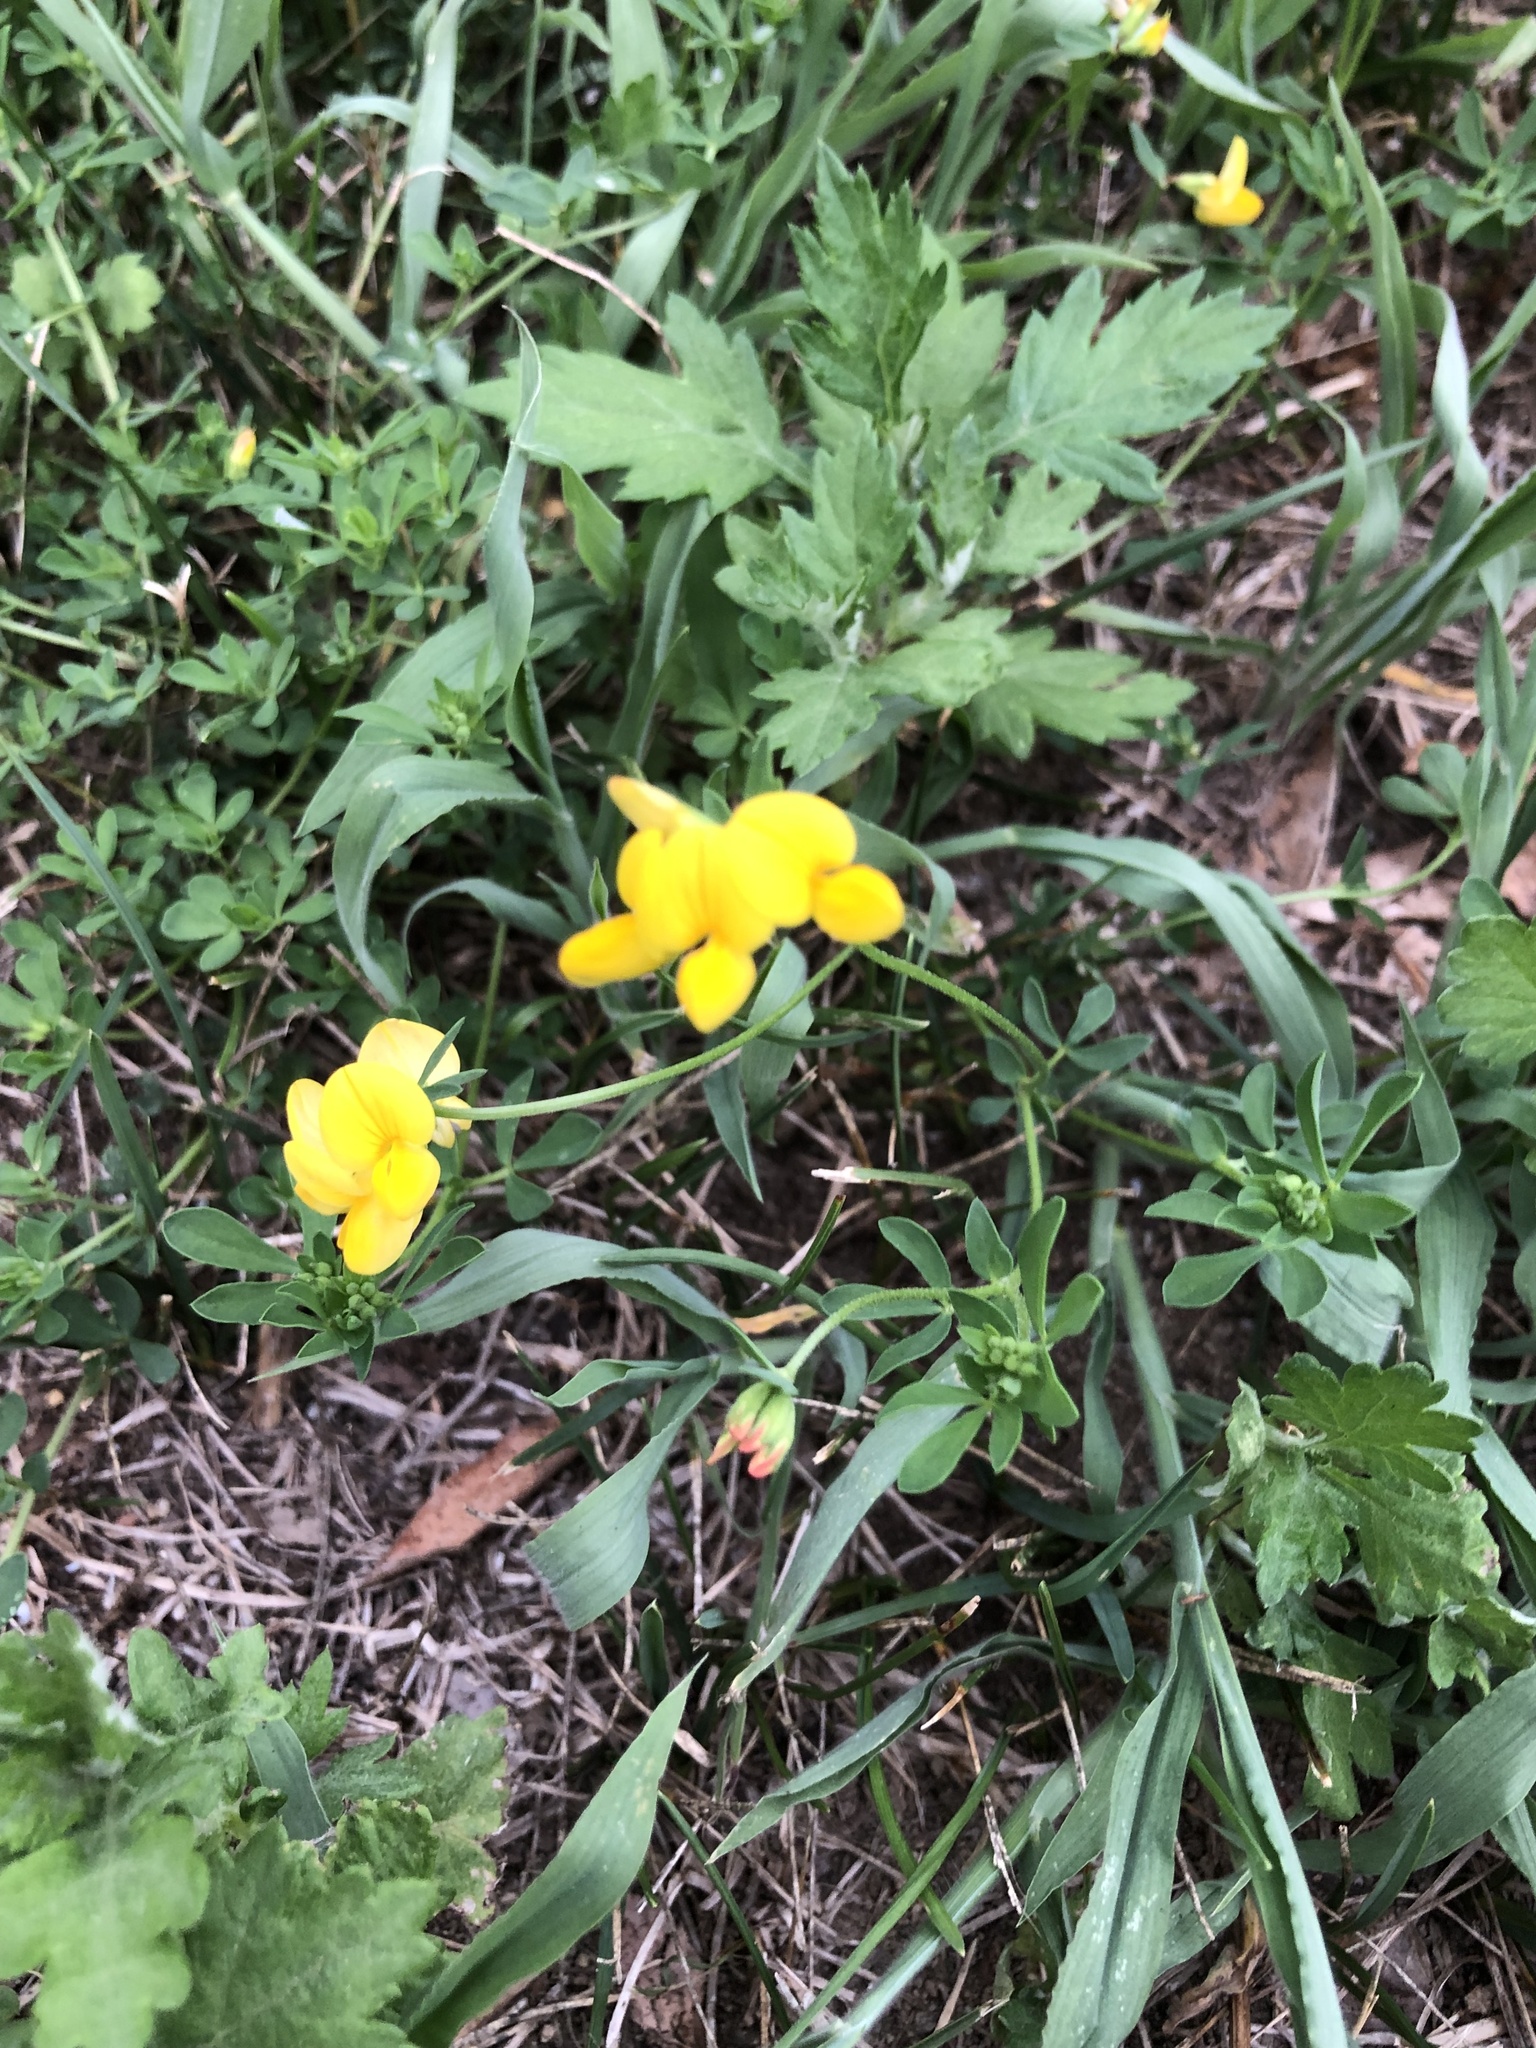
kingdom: Plantae
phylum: Tracheophyta
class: Magnoliopsida
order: Fabales
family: Fabaceae
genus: Lotus
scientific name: Lotus corniculatus
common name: Common bird's-foot-trefoil
